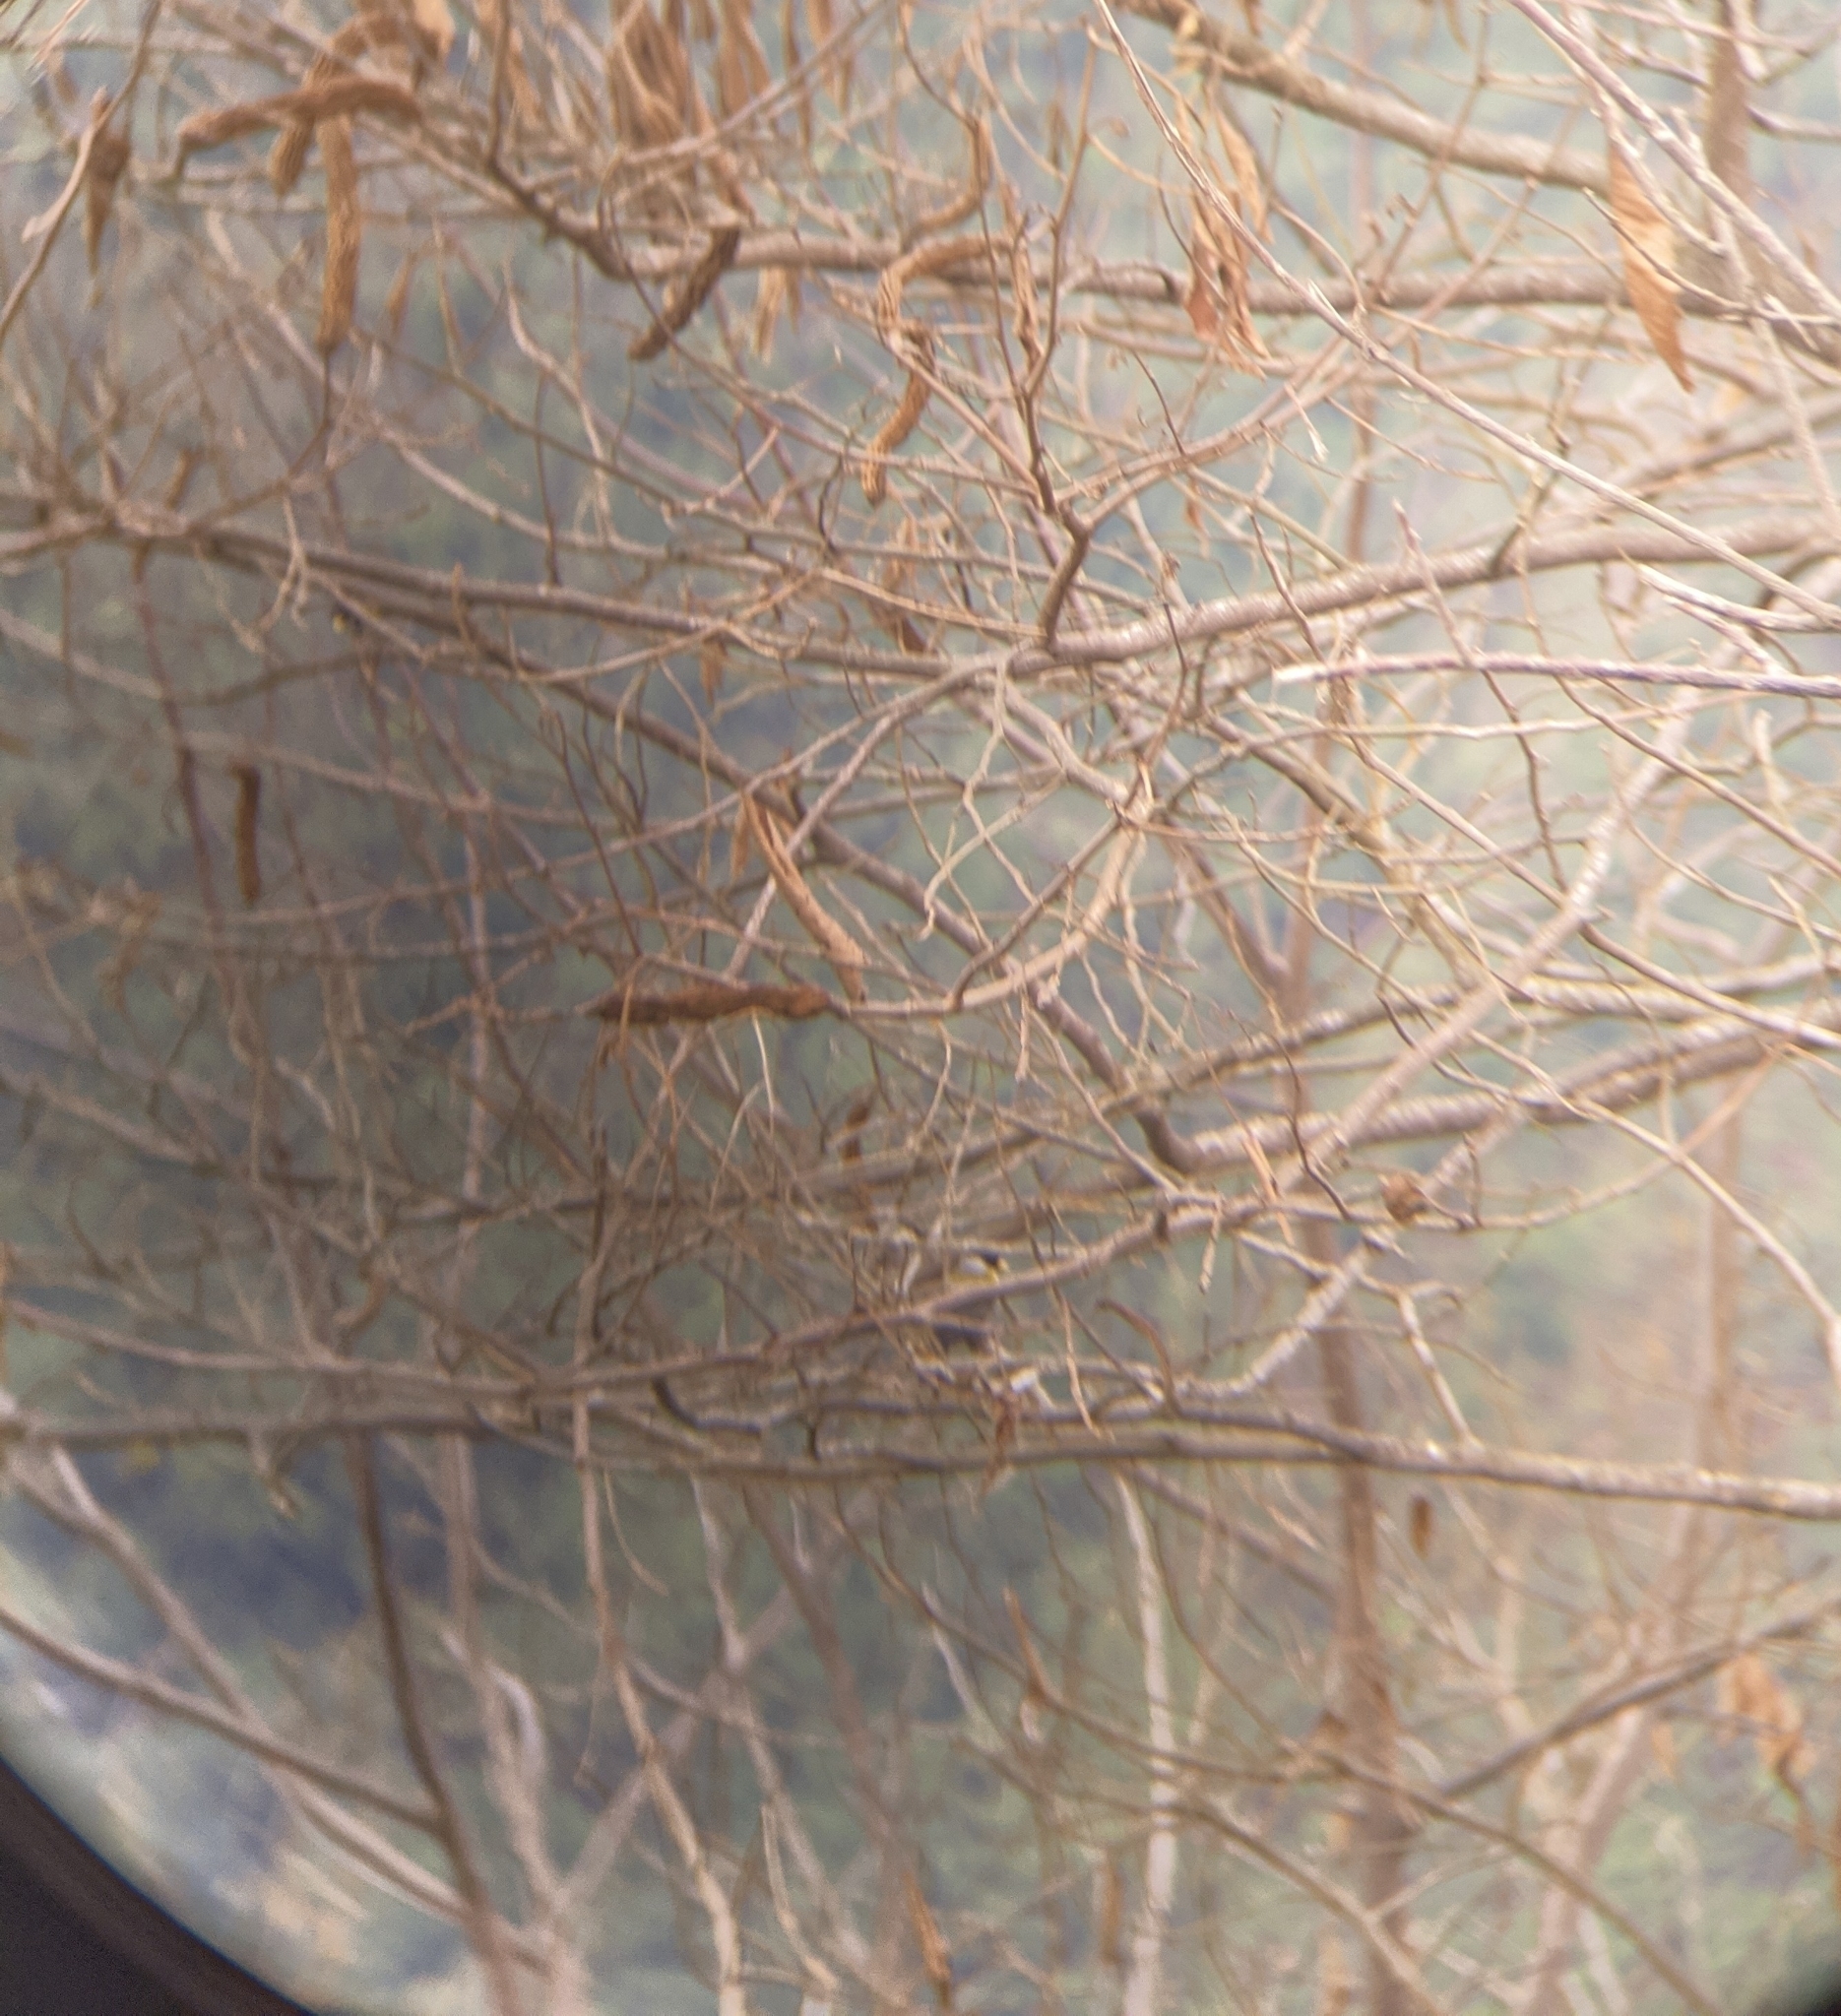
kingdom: Animalia
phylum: Chordata
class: Aves
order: Passeriformes
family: Passerellidae
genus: Arremon
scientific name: Arremon schlegeli
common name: Golden-winged sparrow
